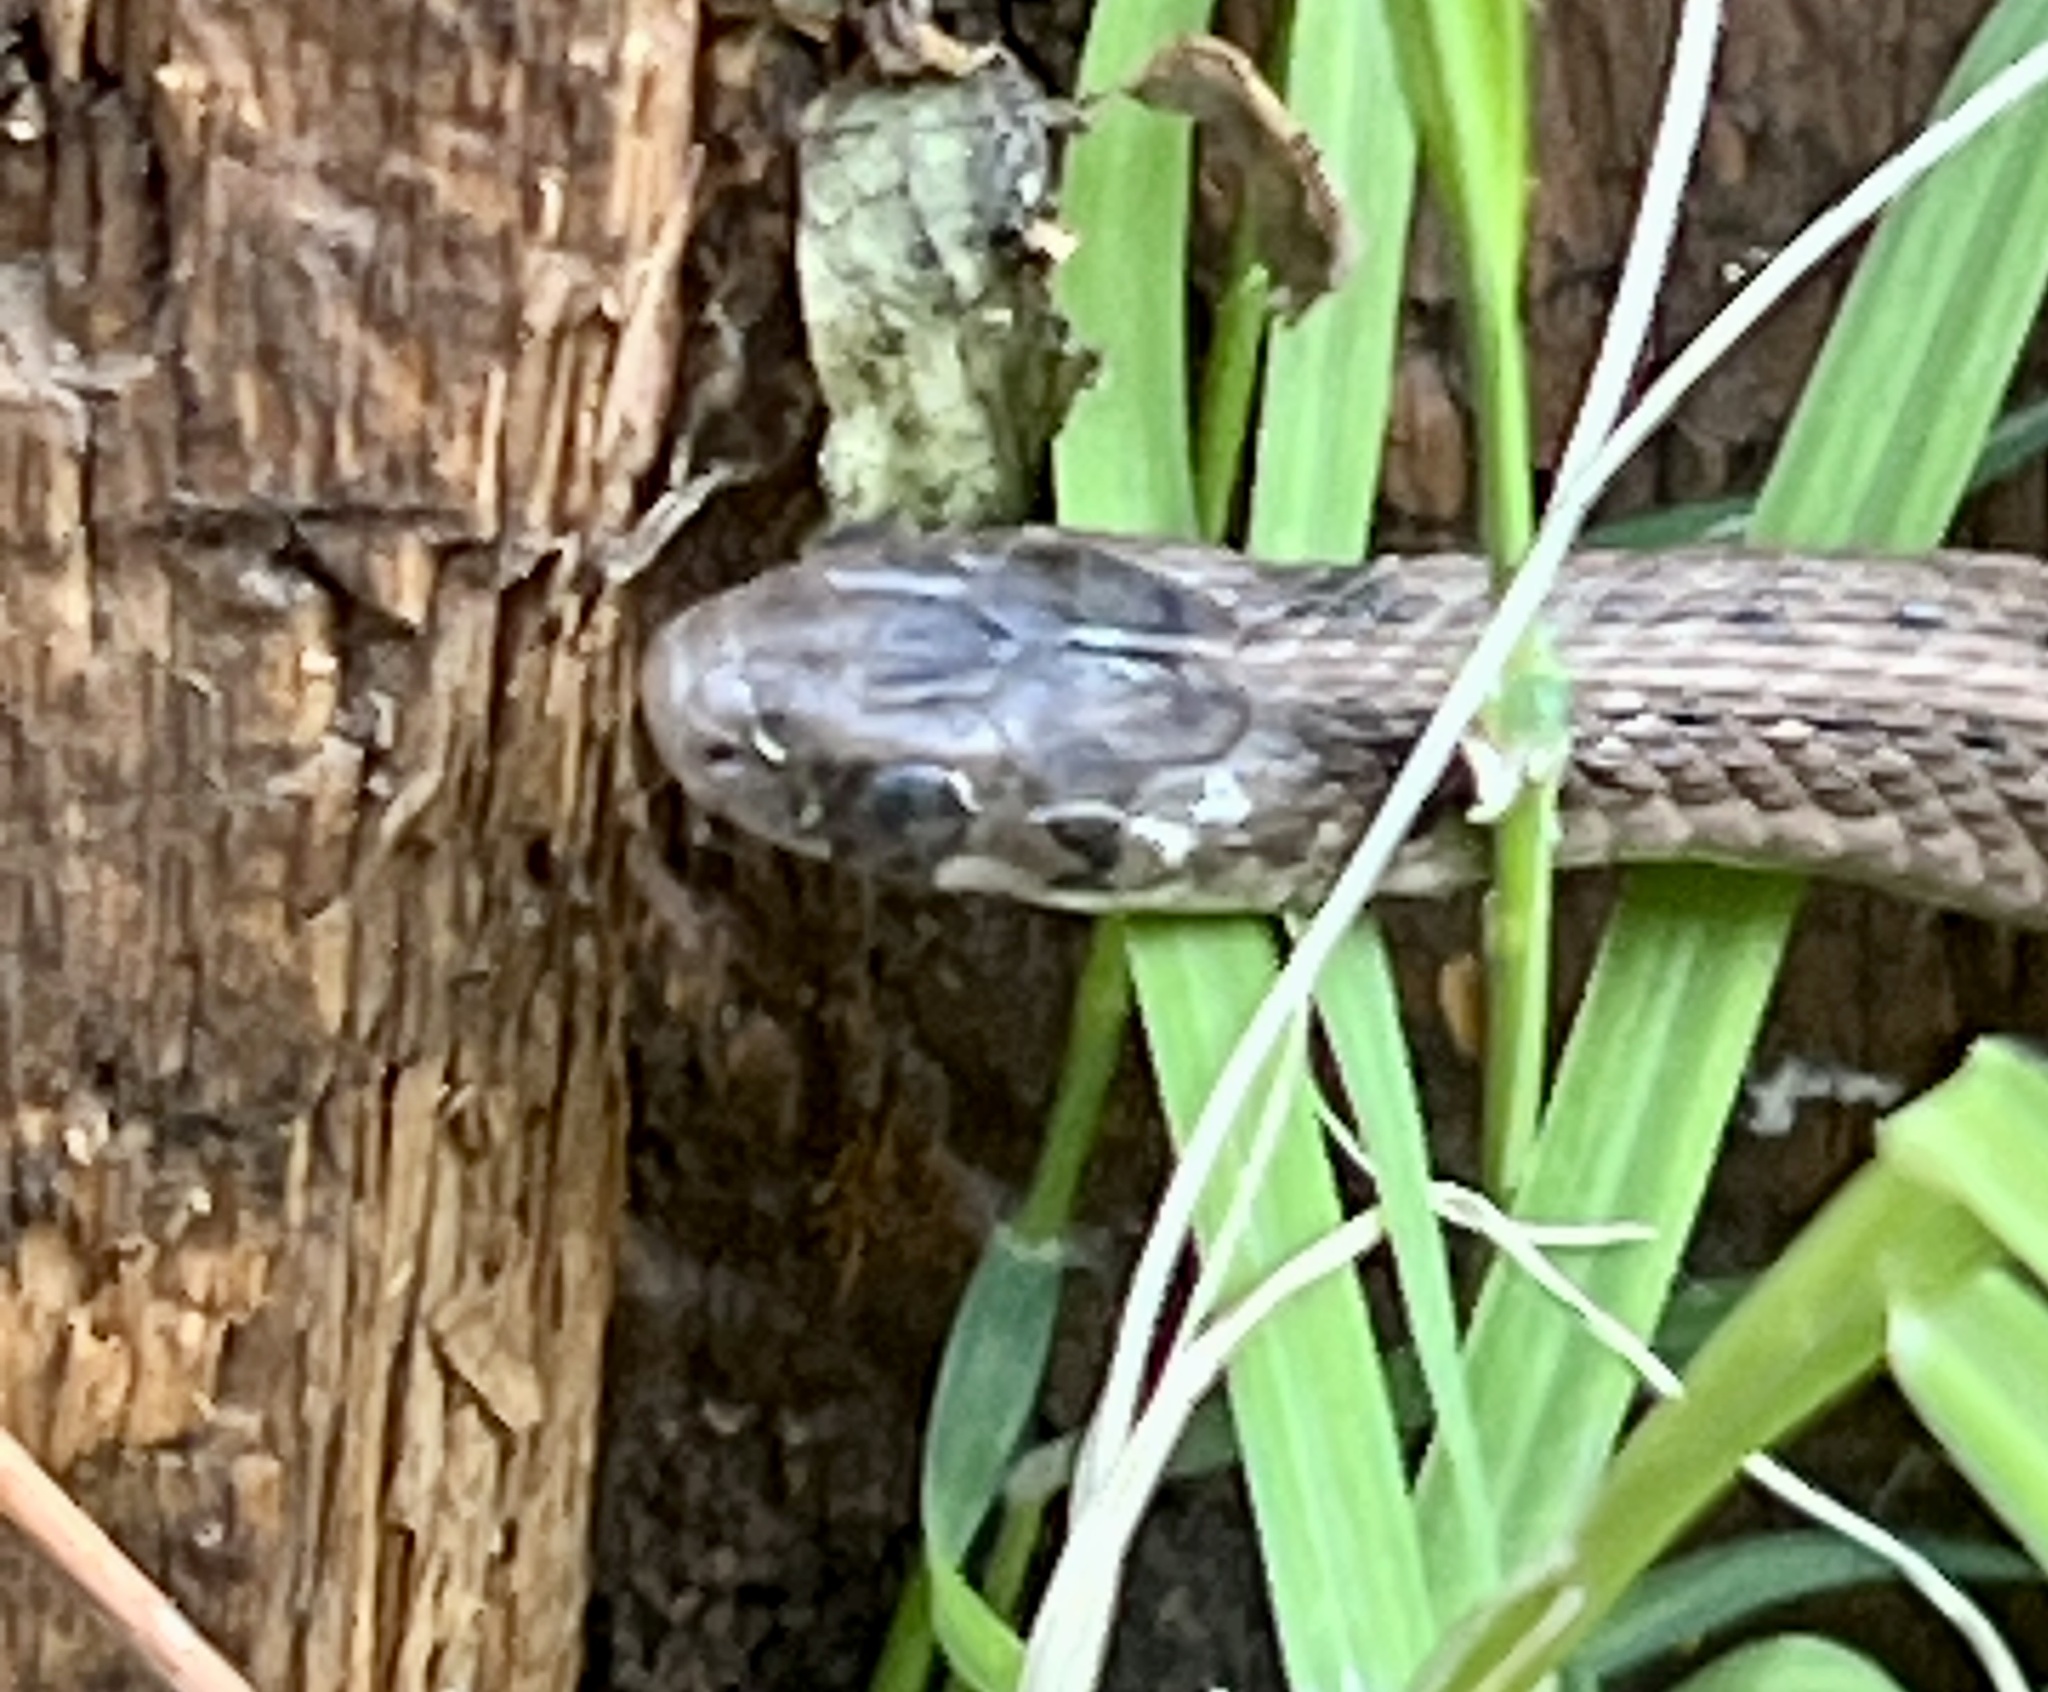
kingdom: Animalia
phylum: Chordata
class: Squamata
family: Colubridae
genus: Storeria
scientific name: Storeria dekayi
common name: (dekay’s) brown snake
